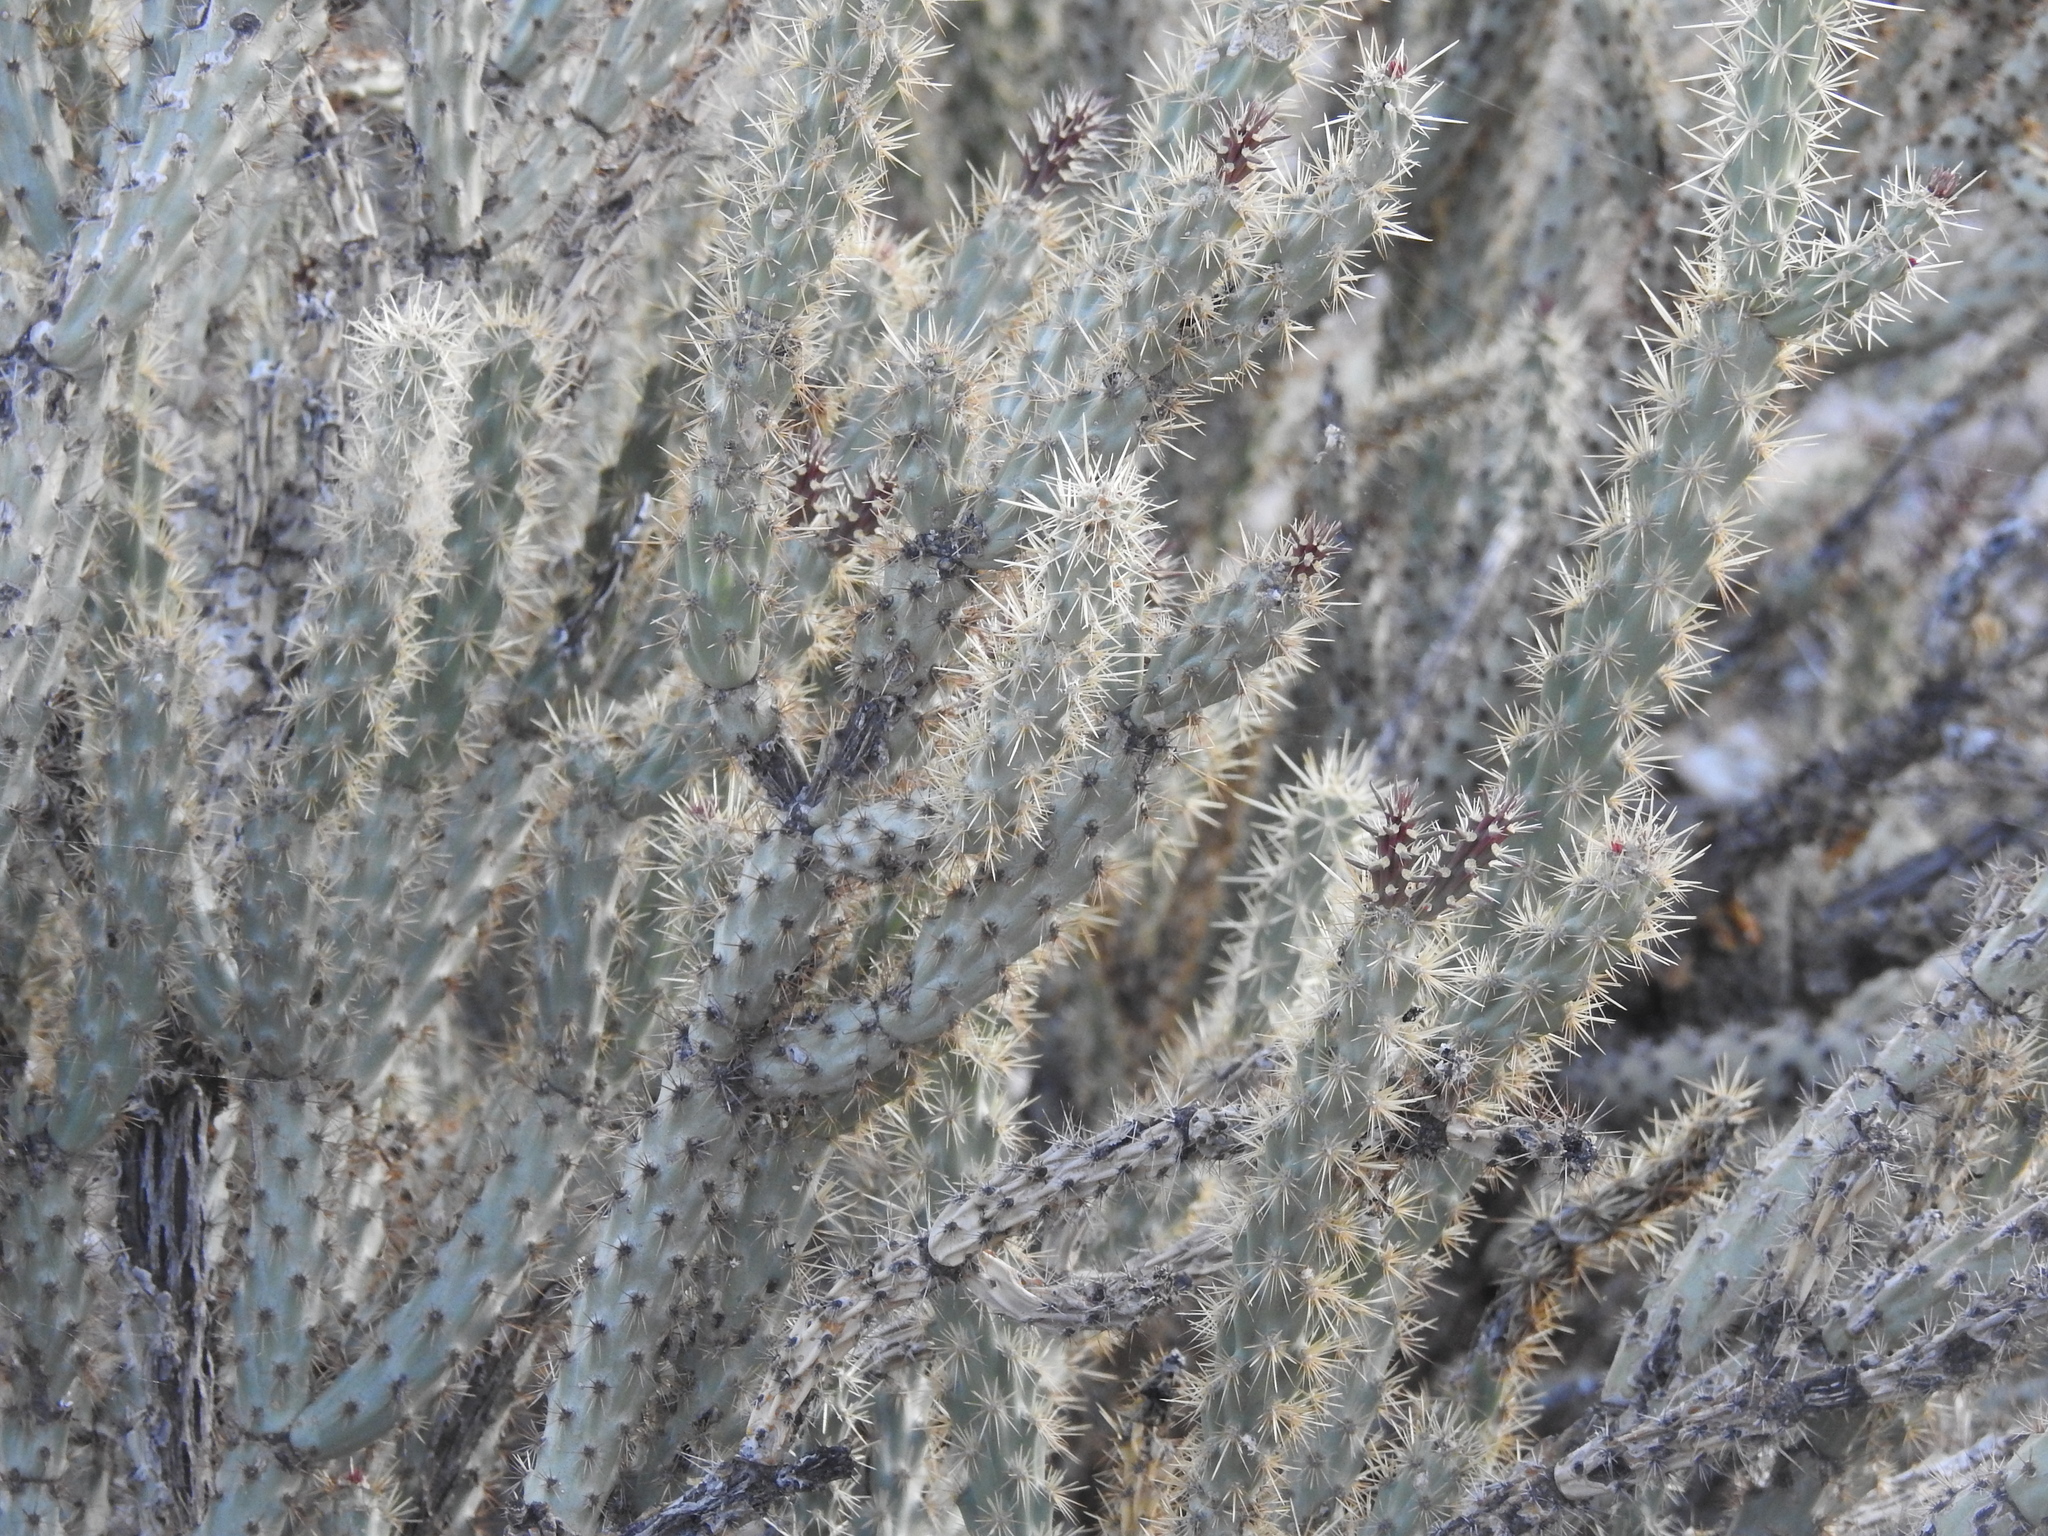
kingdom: Plantae
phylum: Tracheophyta
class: Magnoliopsida
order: Caryophyllales
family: Cactaceae
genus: Cylindropuntia
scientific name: Cylindropuntia acanthocarpa
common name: Buckhorn cholla
